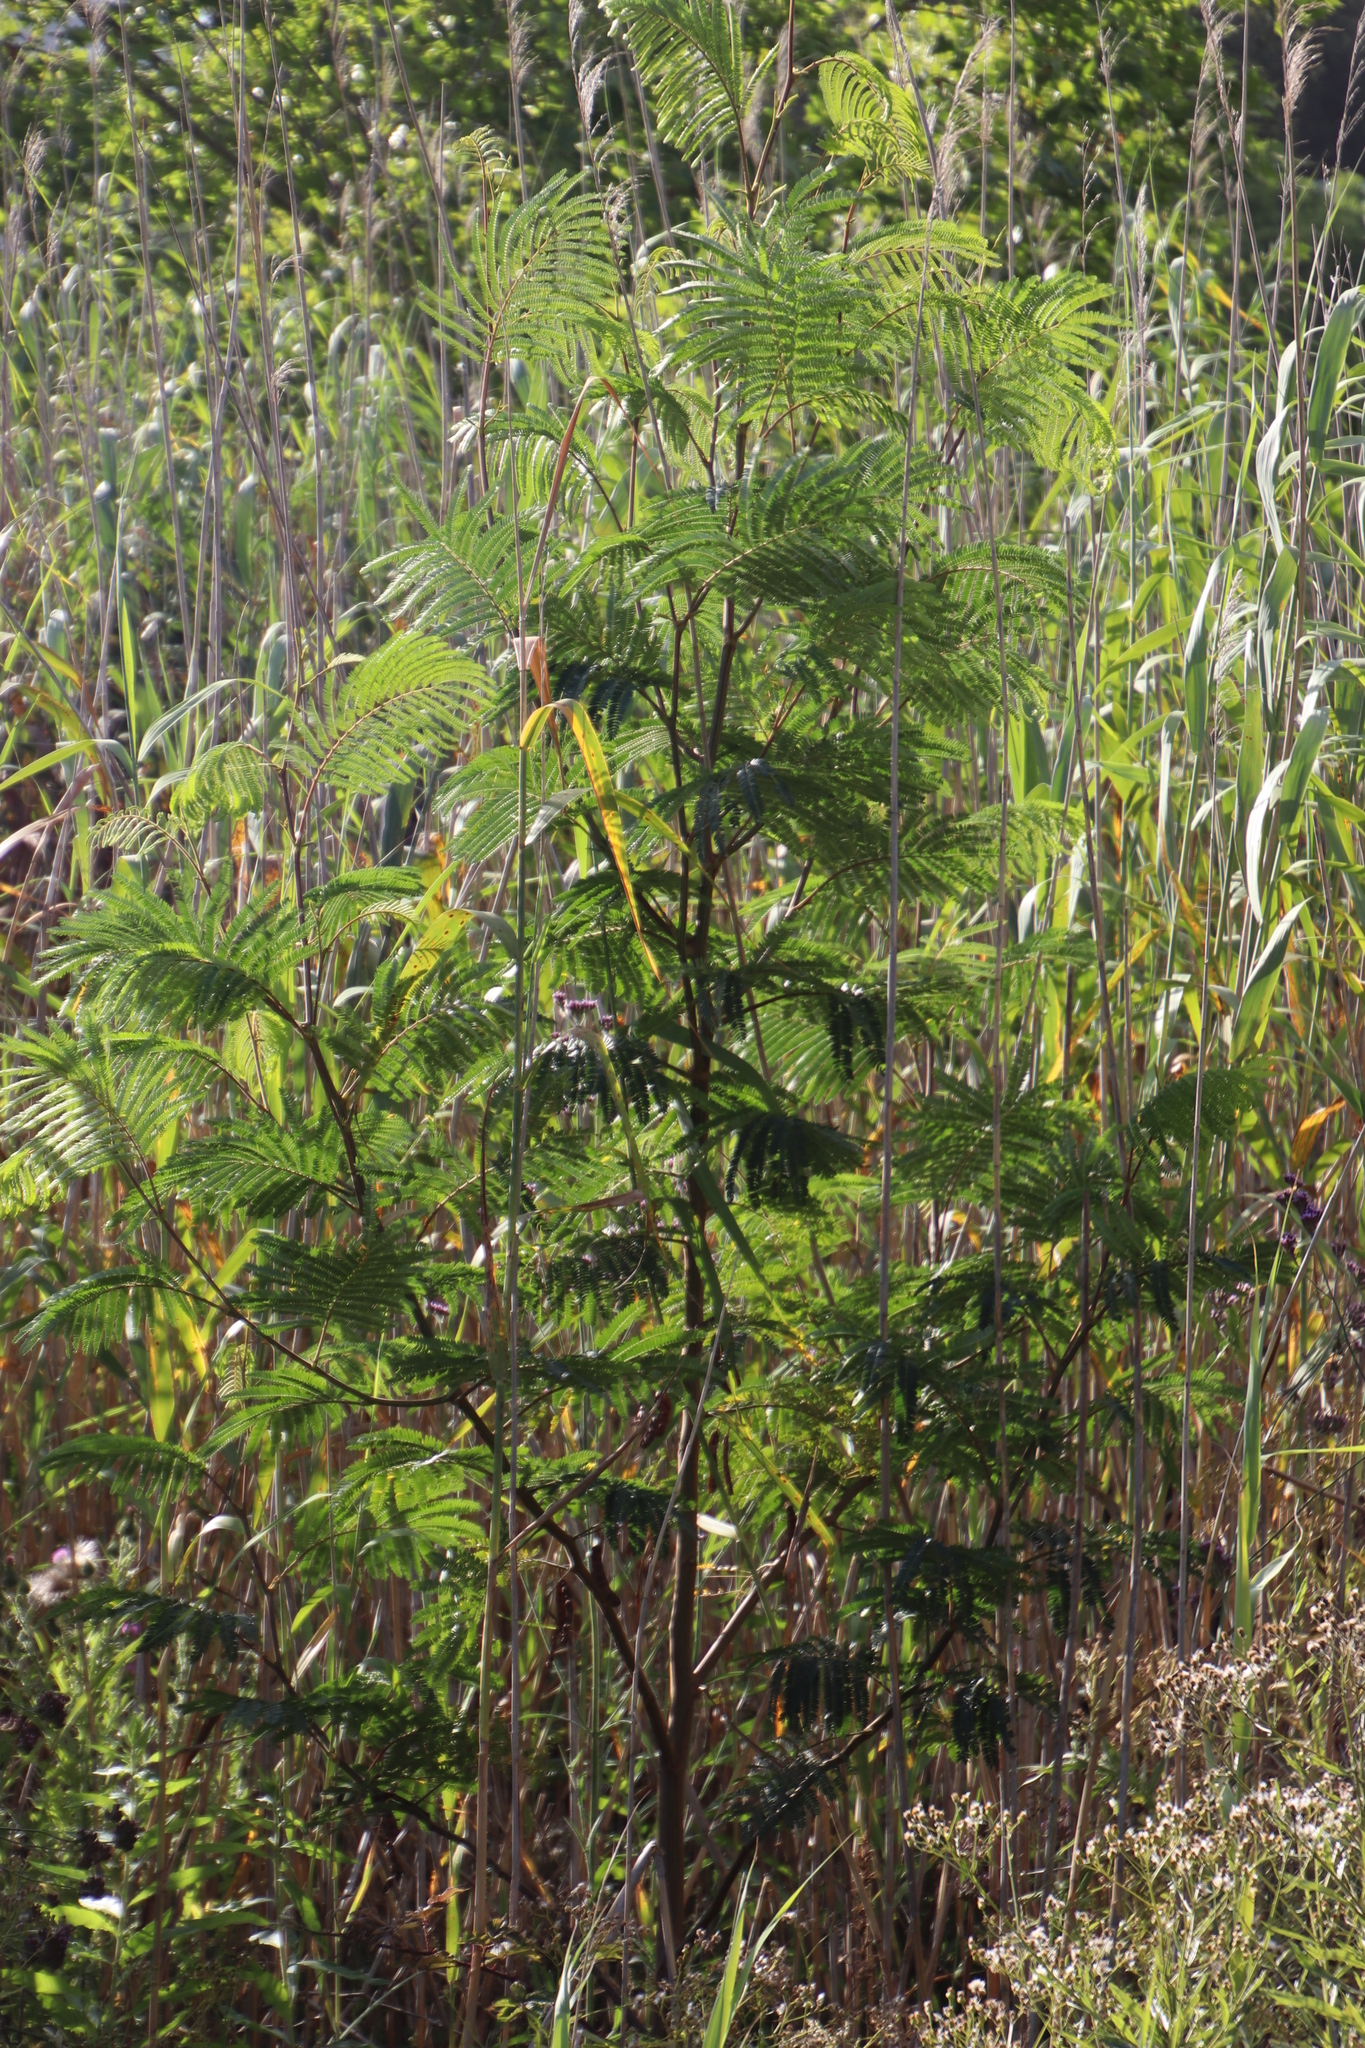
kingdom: Plantae
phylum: Tracheophyta
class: Magnoliopsida
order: Fabales
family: Fabaceae
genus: Paraserianthes
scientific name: Paraserianthes lophantha
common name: Plume albizia
